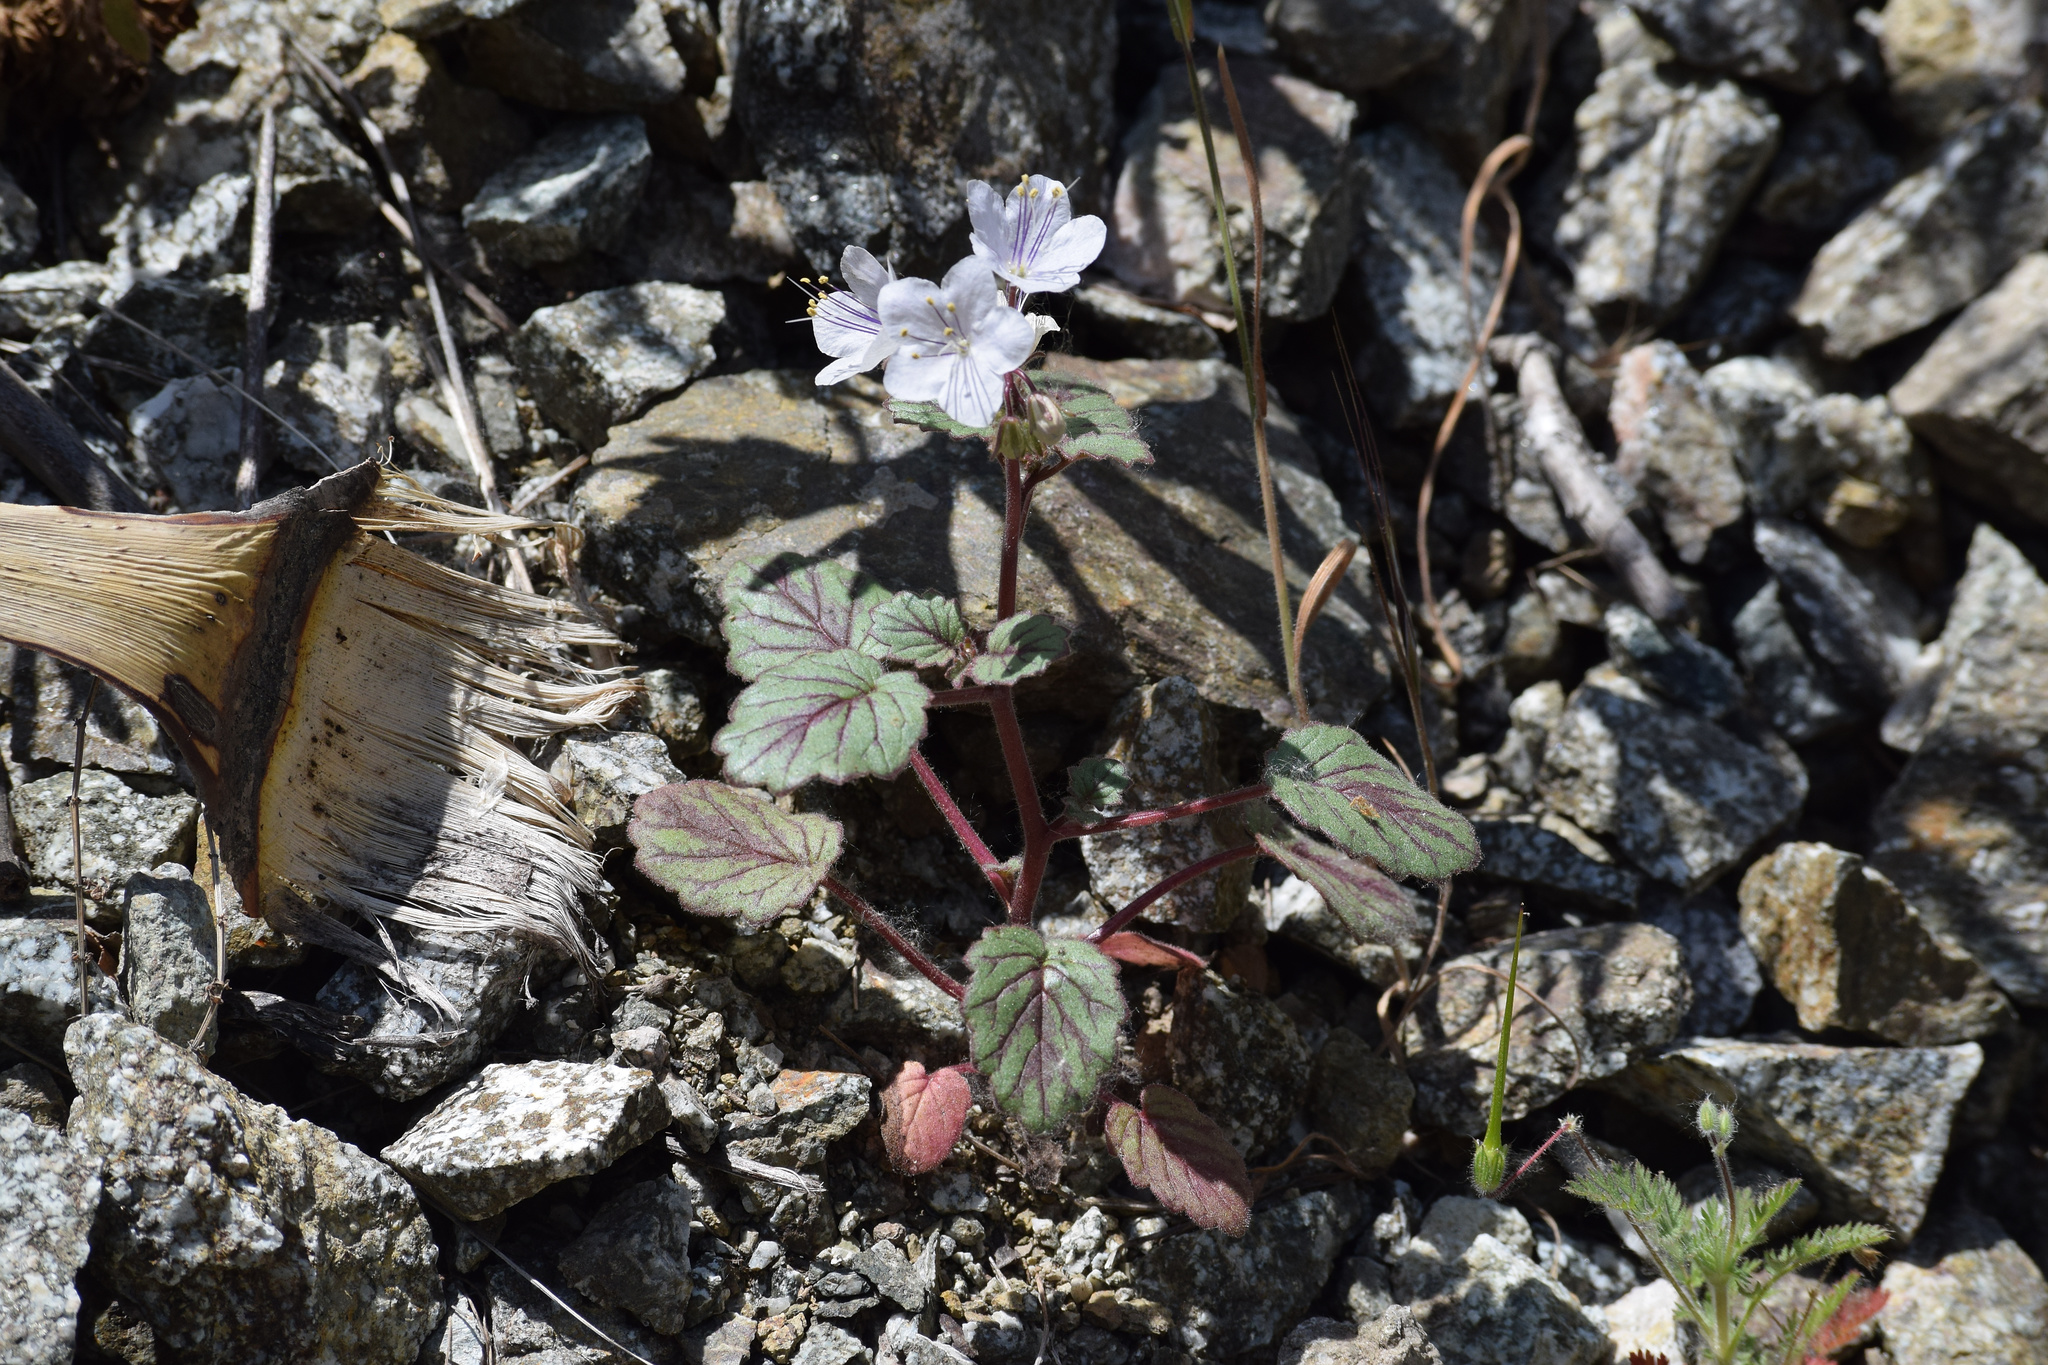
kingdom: Plantae
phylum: Tracheophyta
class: Magnoliopsida
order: Boraginales
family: Hydrophyllaceae
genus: Phacelia
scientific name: Phacelia longipes
